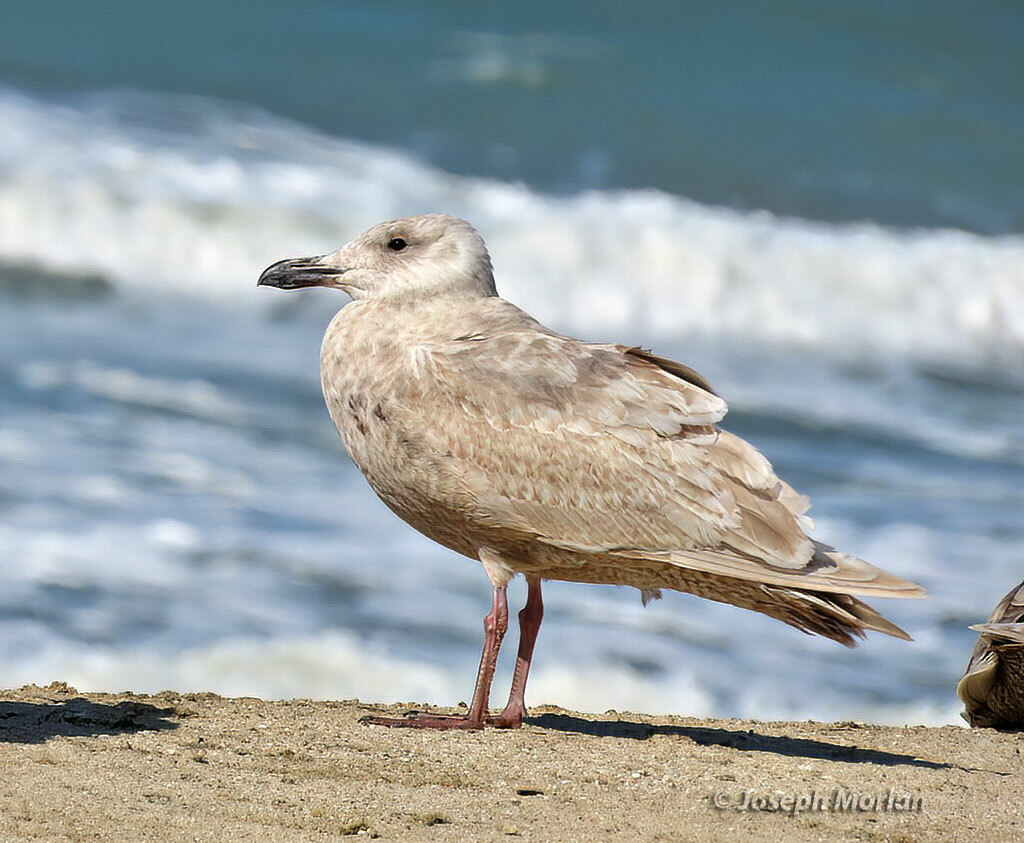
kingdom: Animalia
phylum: Chordata
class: Aves
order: Charadriiformes
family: Laridae
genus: Larus
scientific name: Larus glaucescens
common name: Glaucous-winged gull
